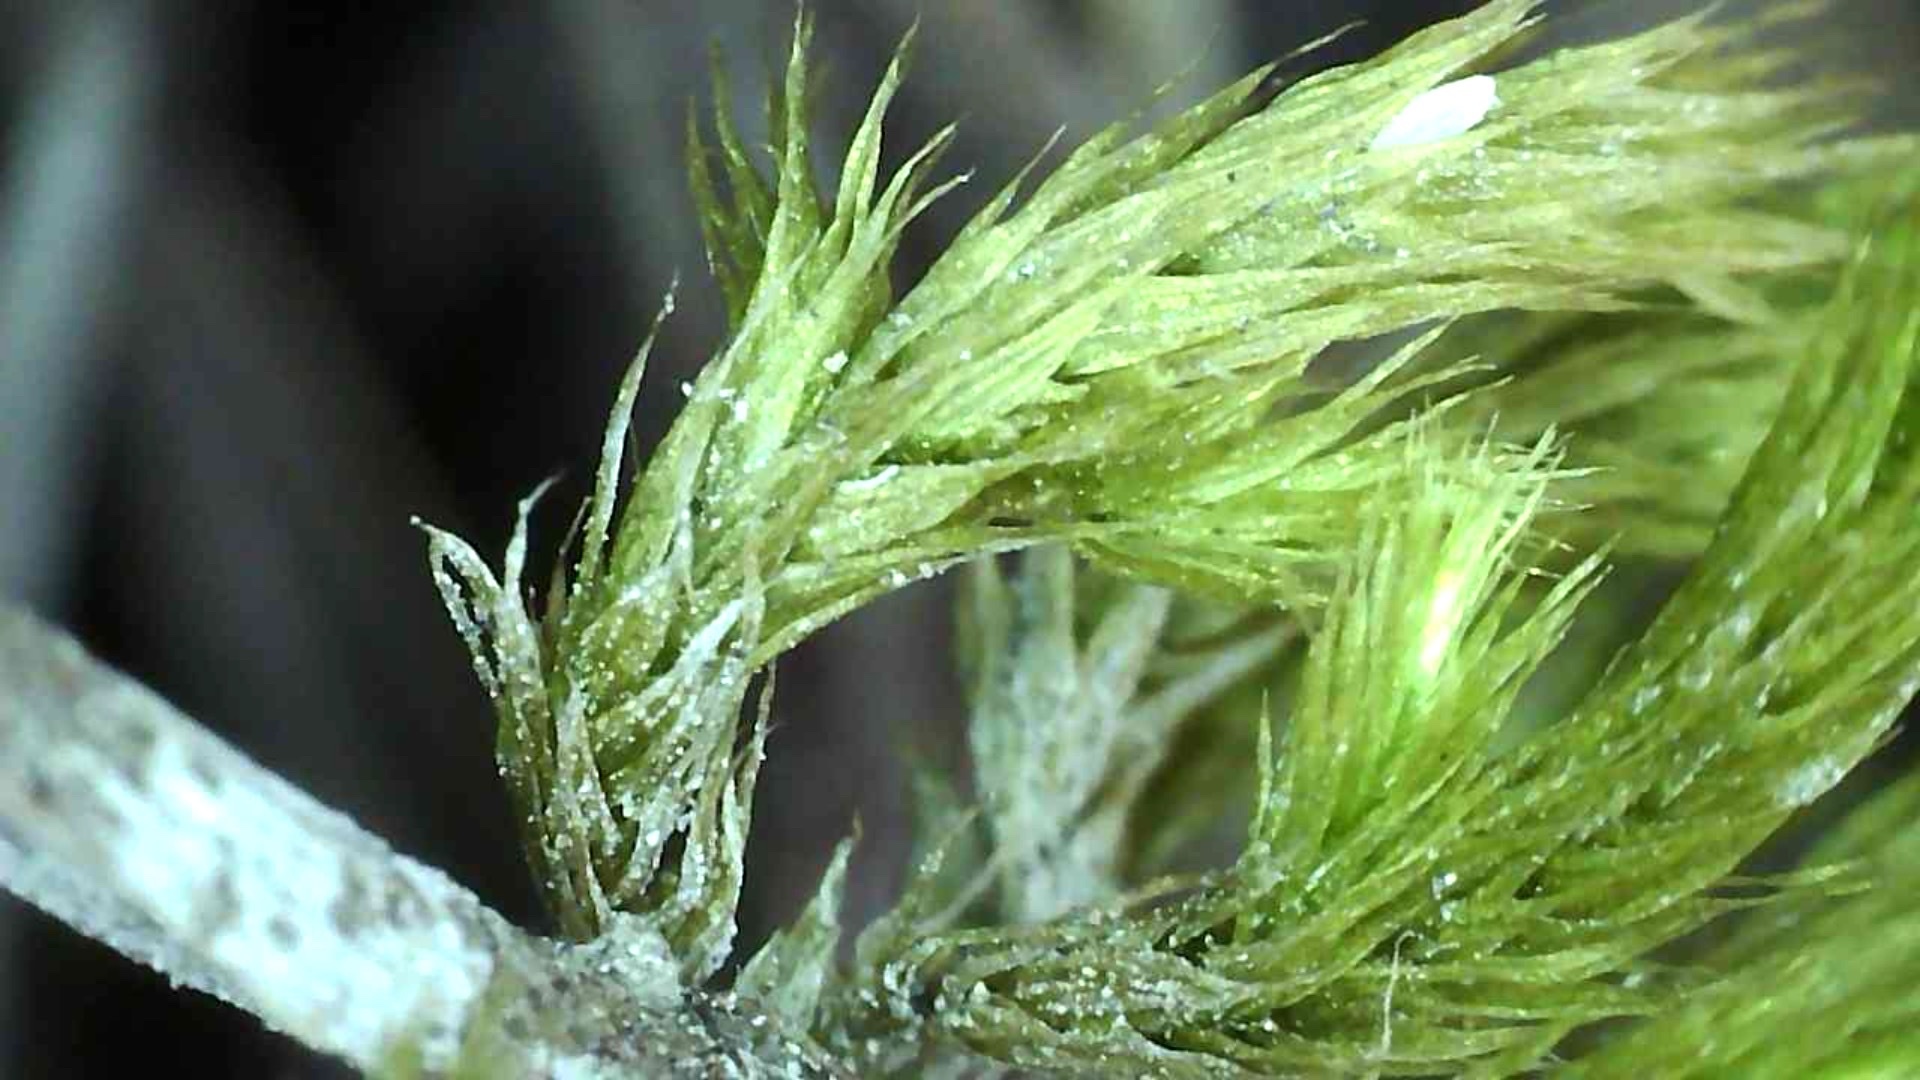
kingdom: Plantae
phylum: Bryophyta
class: Bryopsida
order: Hypnales
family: Brachytheciaceae
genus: Homalothecium
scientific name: Homalothecium lutescens
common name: Yellow feather-moss
